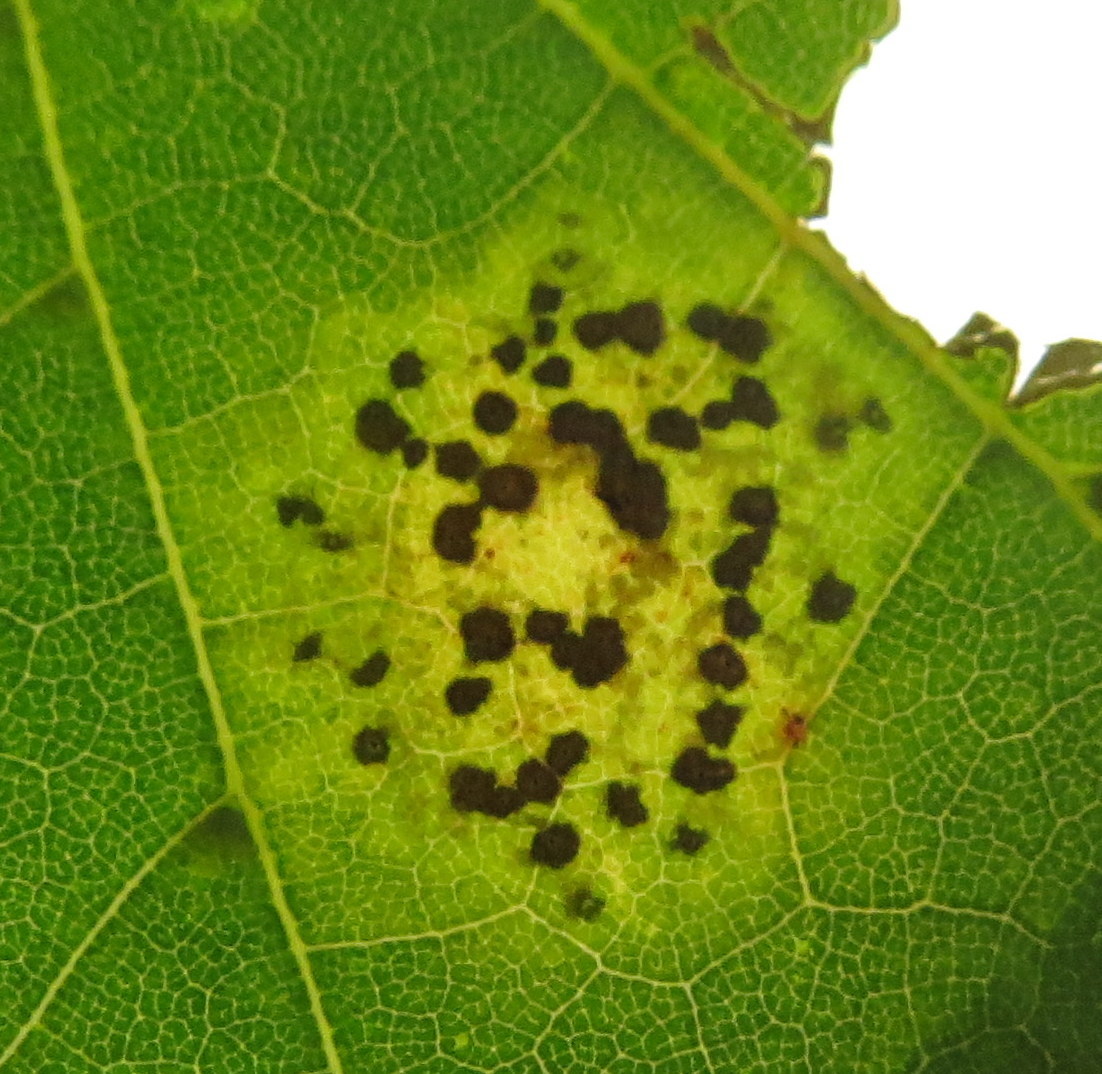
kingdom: Fungi
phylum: Ascomycota
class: Leotiomycetes
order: Rhytismatales
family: Rhytismataceae
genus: Rhytisma
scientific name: Rhytisma acerinum
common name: European tar spot
